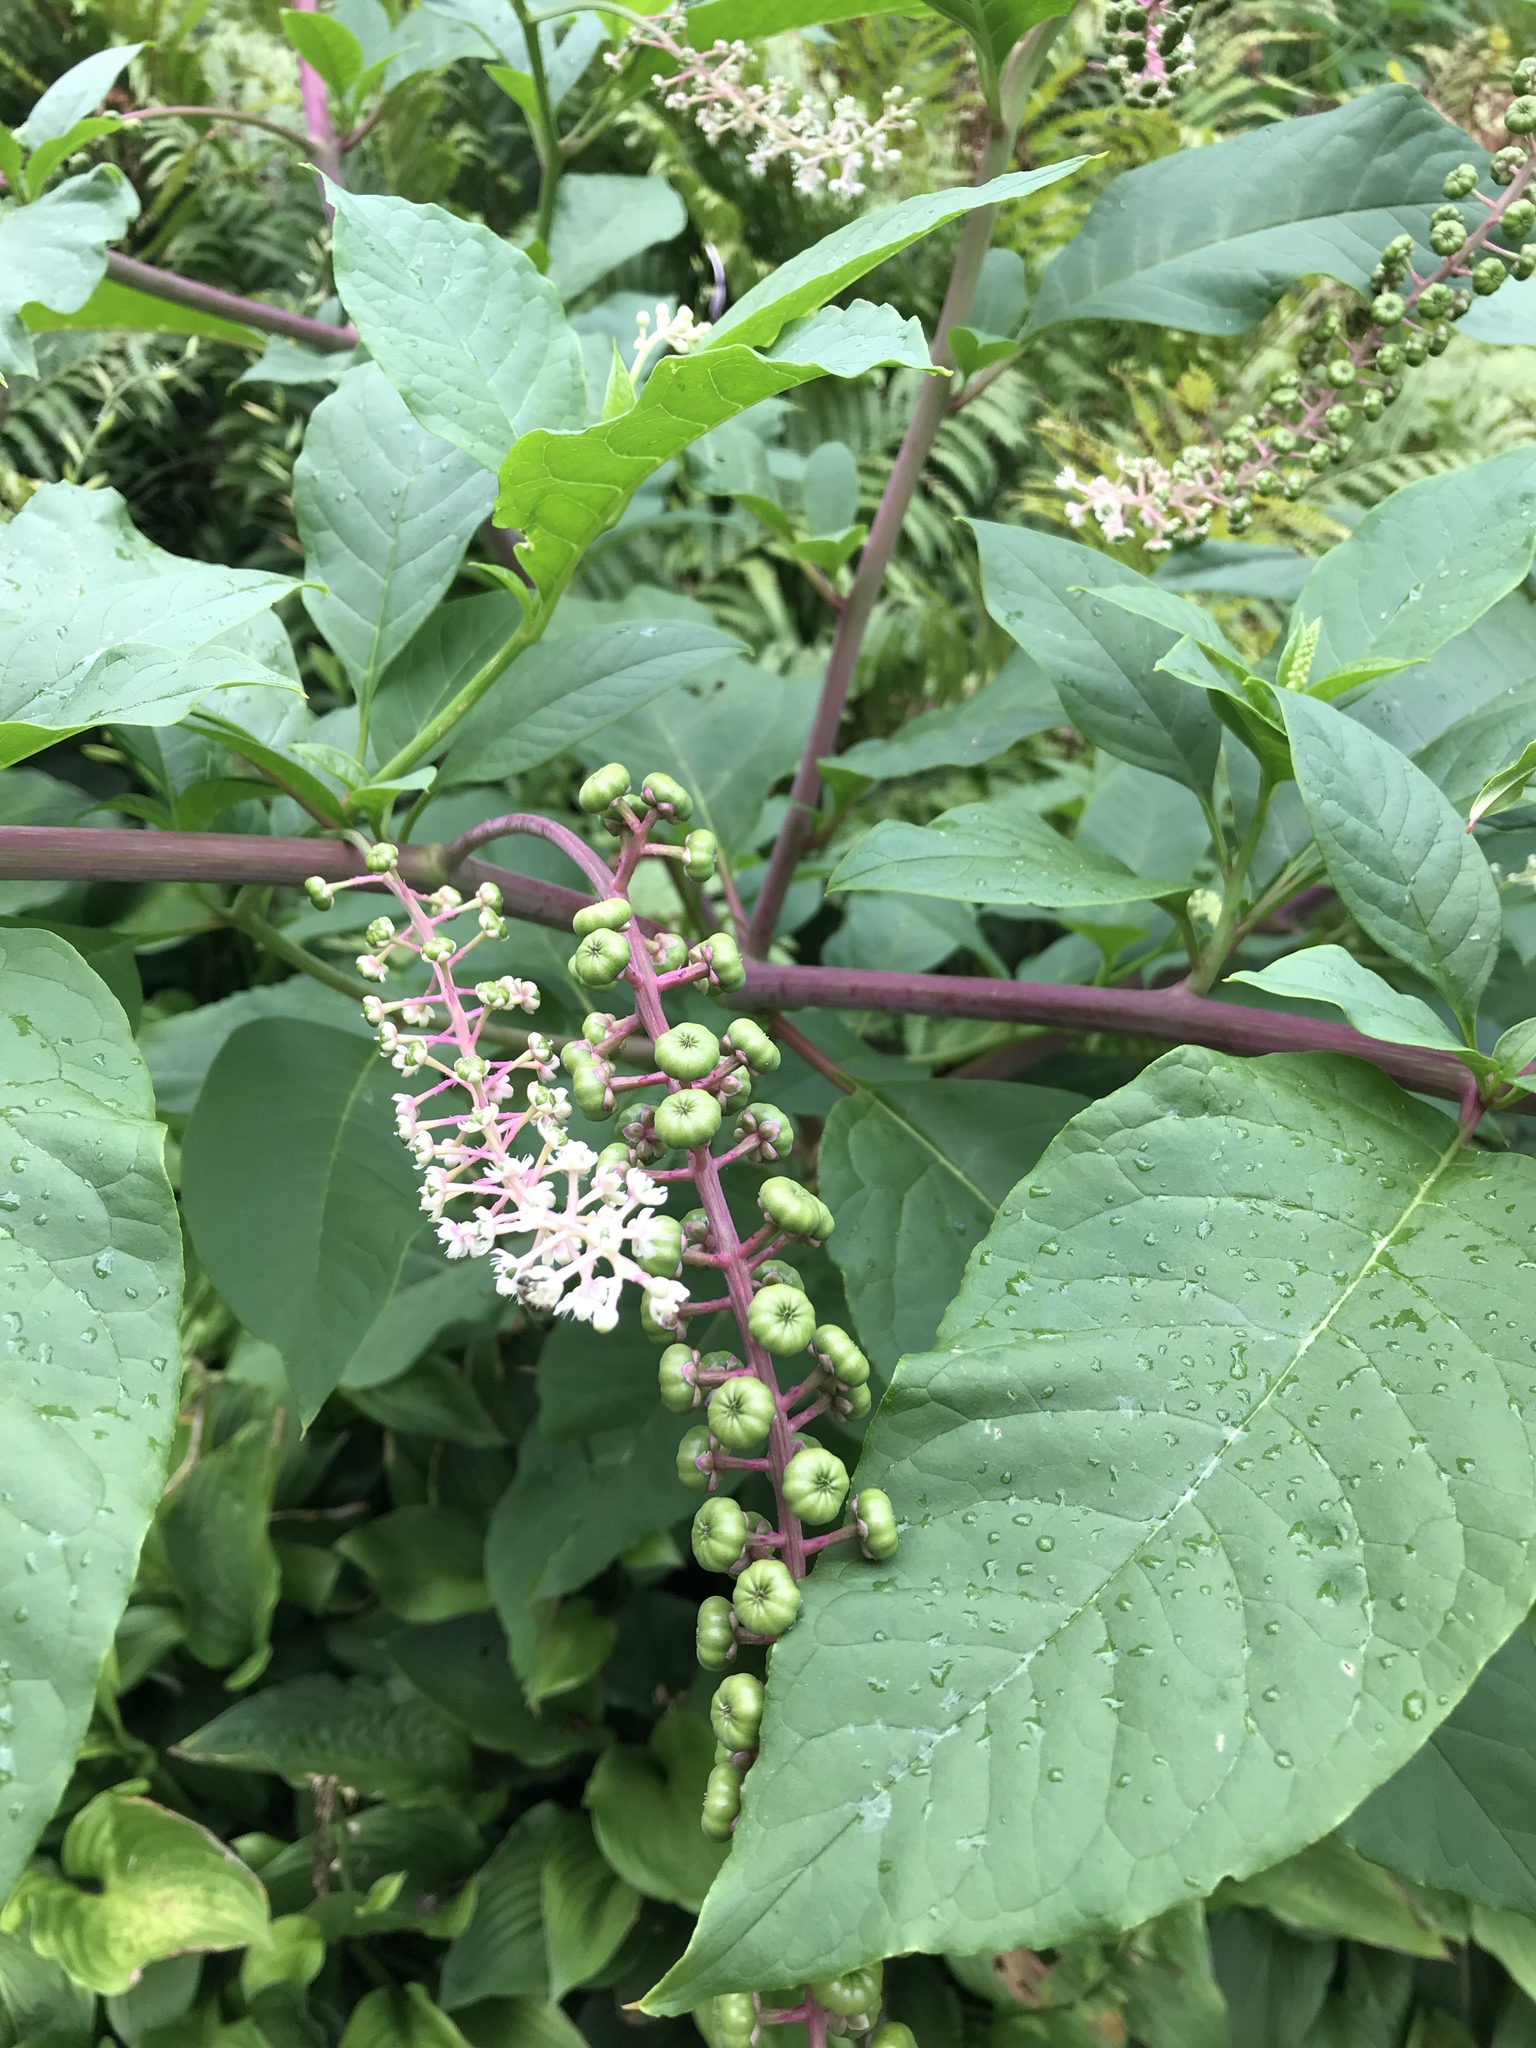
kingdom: Plantae
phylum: Tracheophyta
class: Magnoliopsida
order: Caryophyllales
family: Phytolaccaceae
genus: Phytolacca
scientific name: Phytolacca americana
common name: American pokeweed
